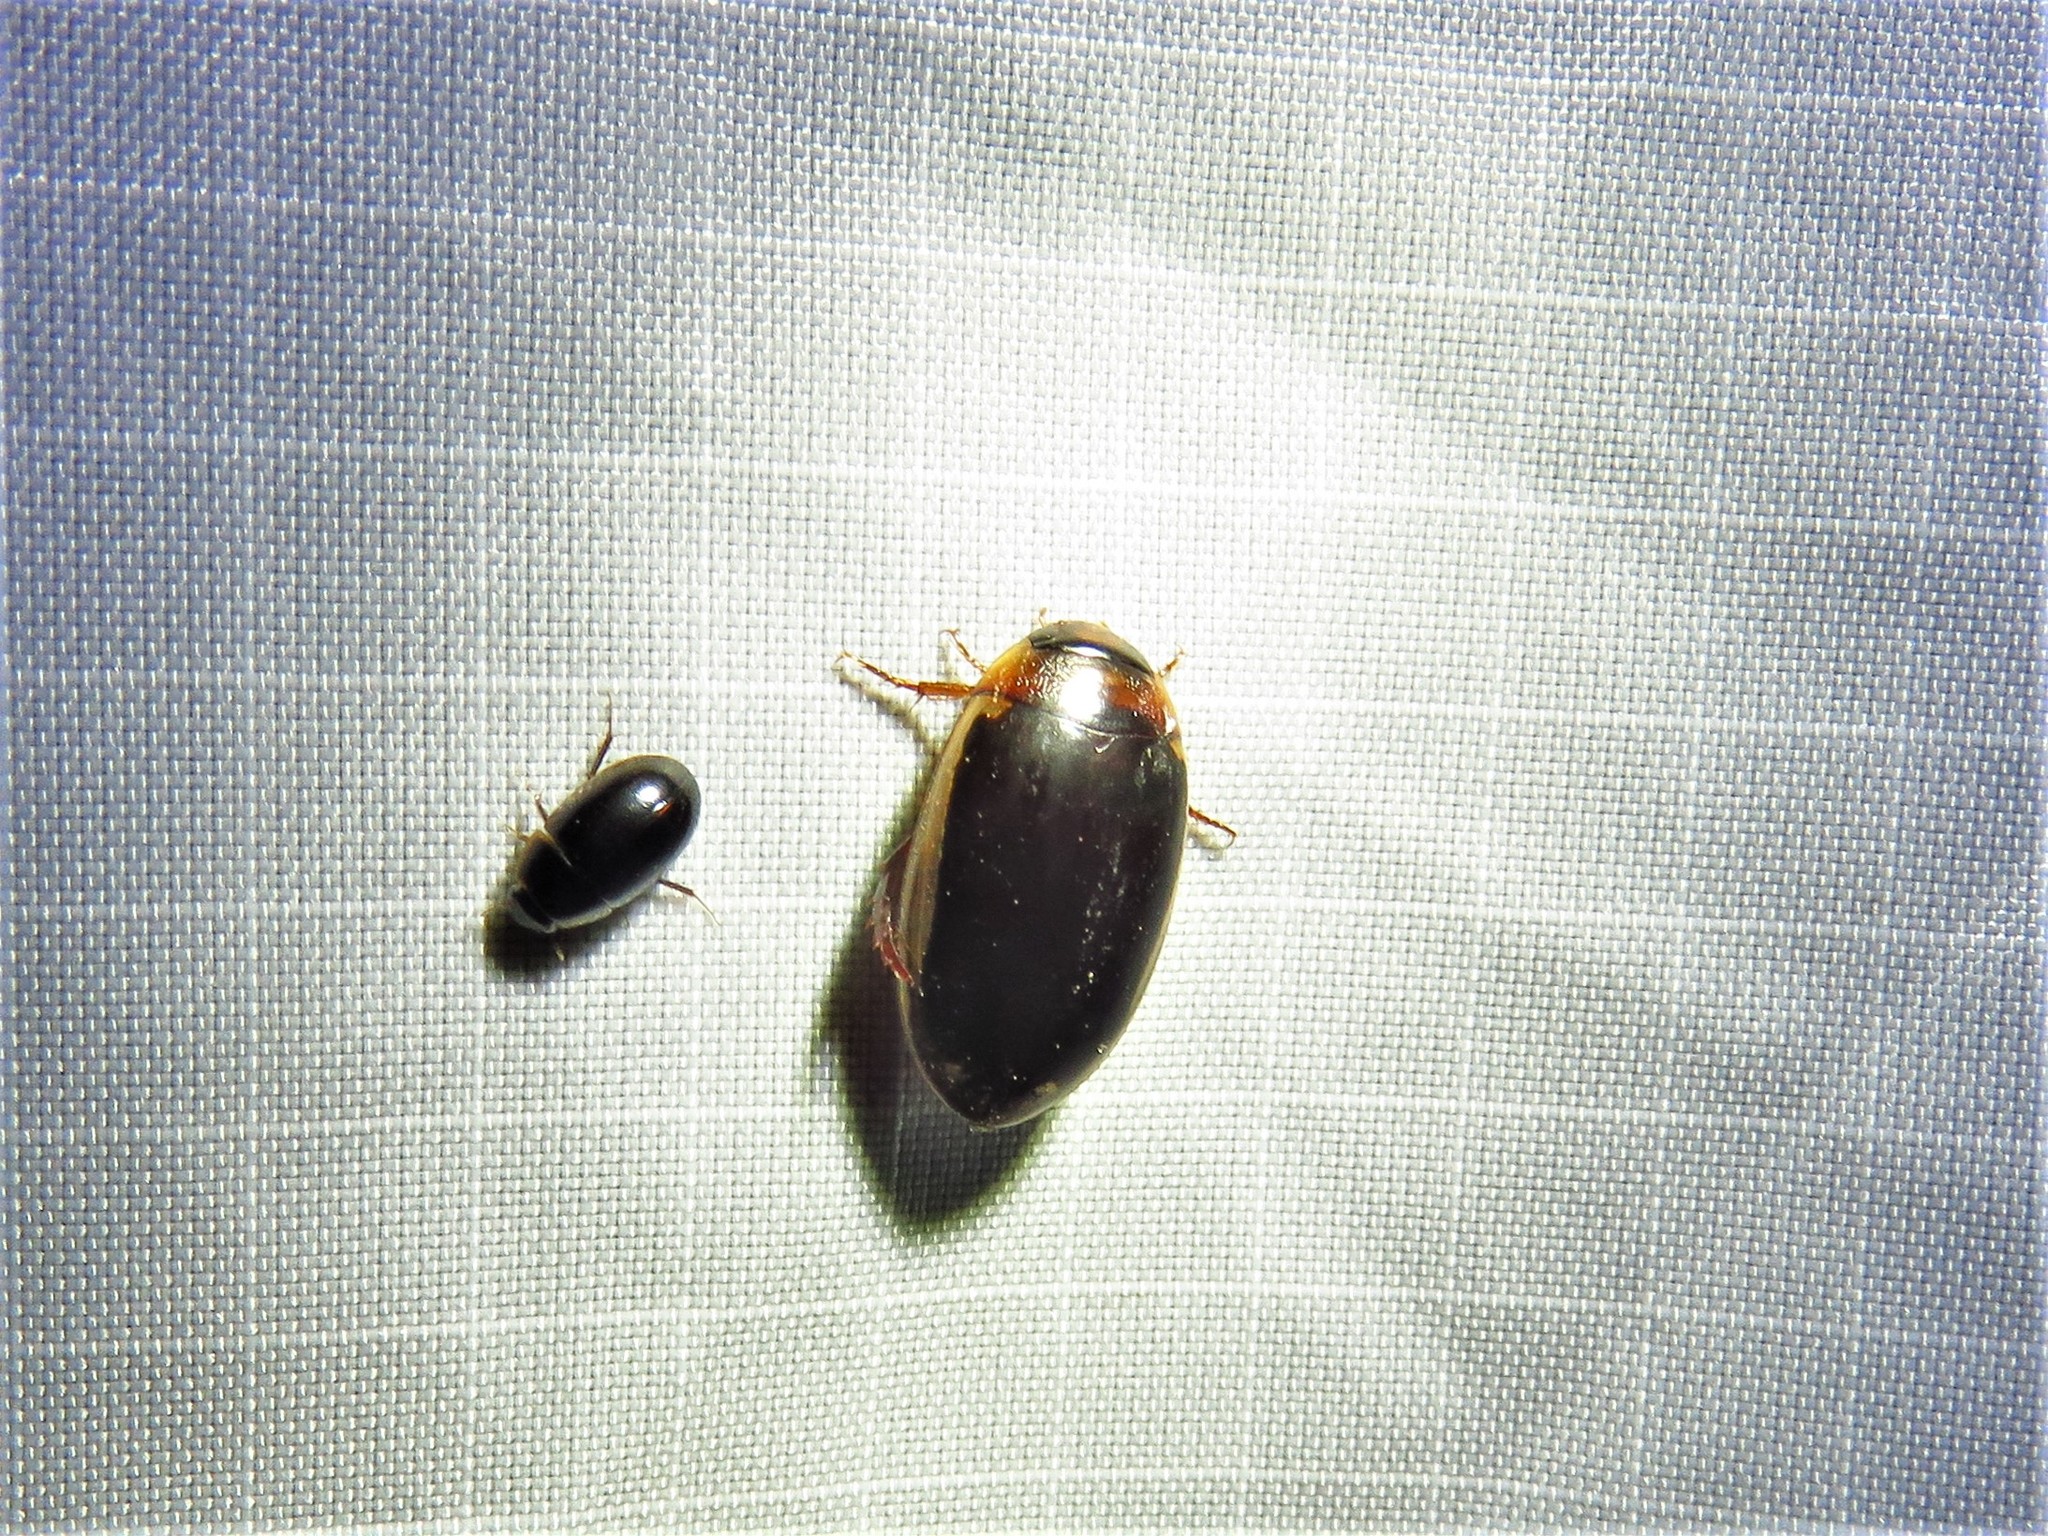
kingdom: Animalia
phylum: Arthropoda
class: Insecta
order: Coleoptera
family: Dytiscidae
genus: Hydaticus
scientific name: Hydaticus bimarginatus
